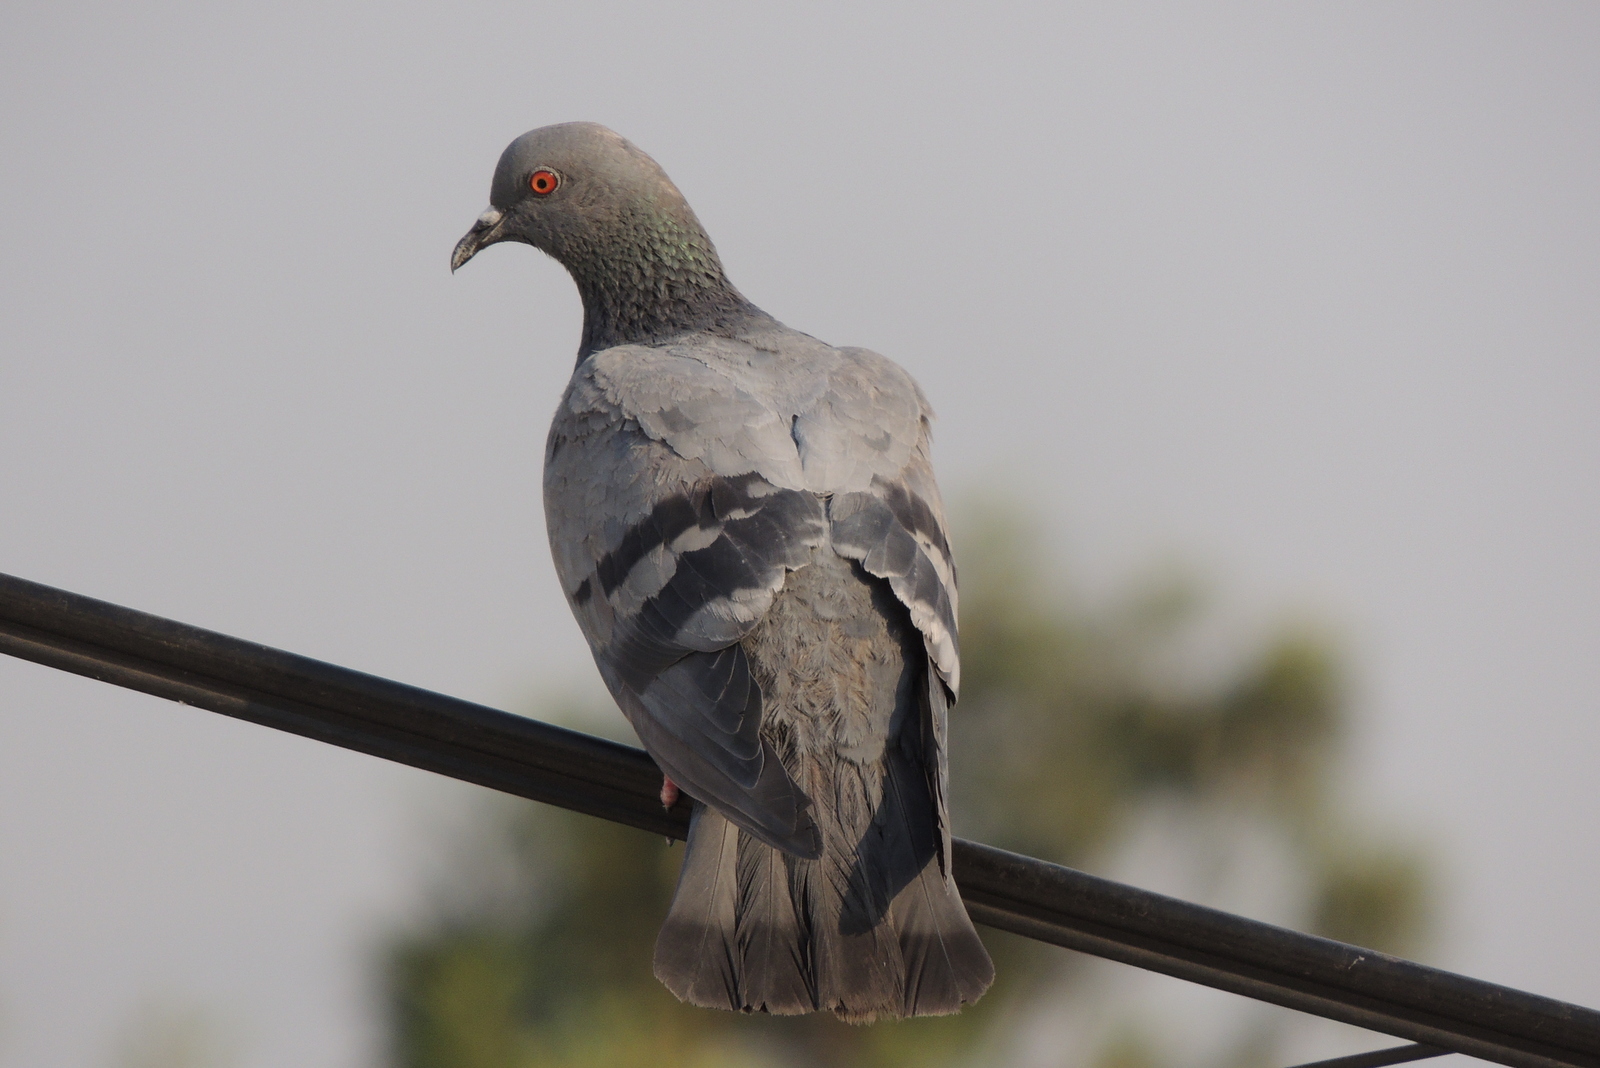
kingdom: Animalia
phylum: Chordata
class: Aves
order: Columbiformes
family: Columbidae
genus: Columba
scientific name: Columba livia
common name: Rock pigeon
